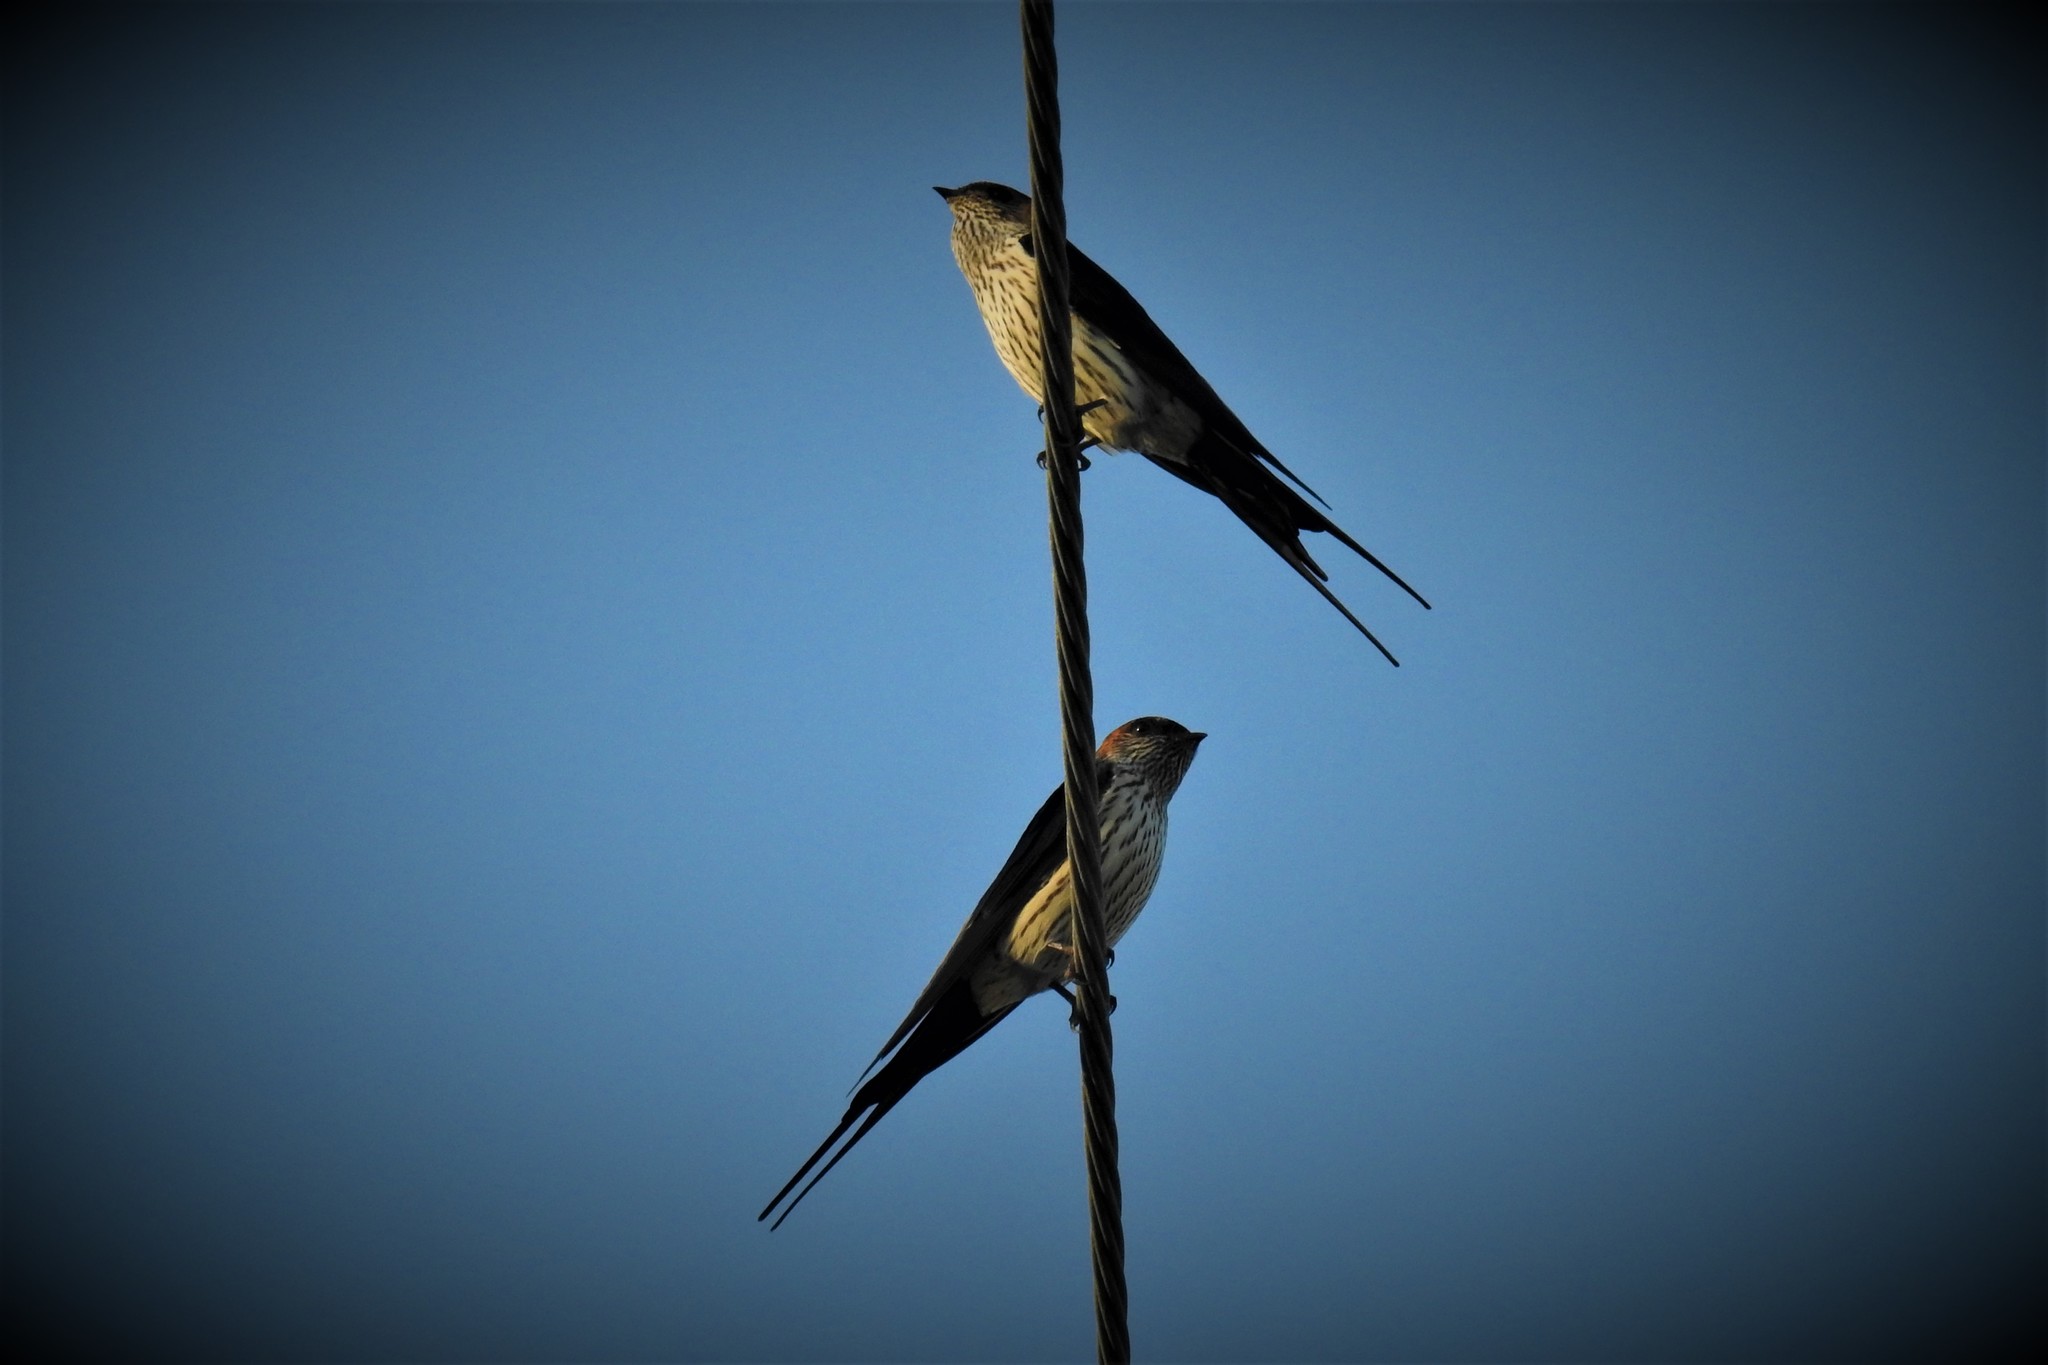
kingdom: Animalia
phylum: Chordata
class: Aves
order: Passeriformes
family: Hirundinidae
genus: Cecropis
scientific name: Cecropis striolata
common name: Striated swallow
